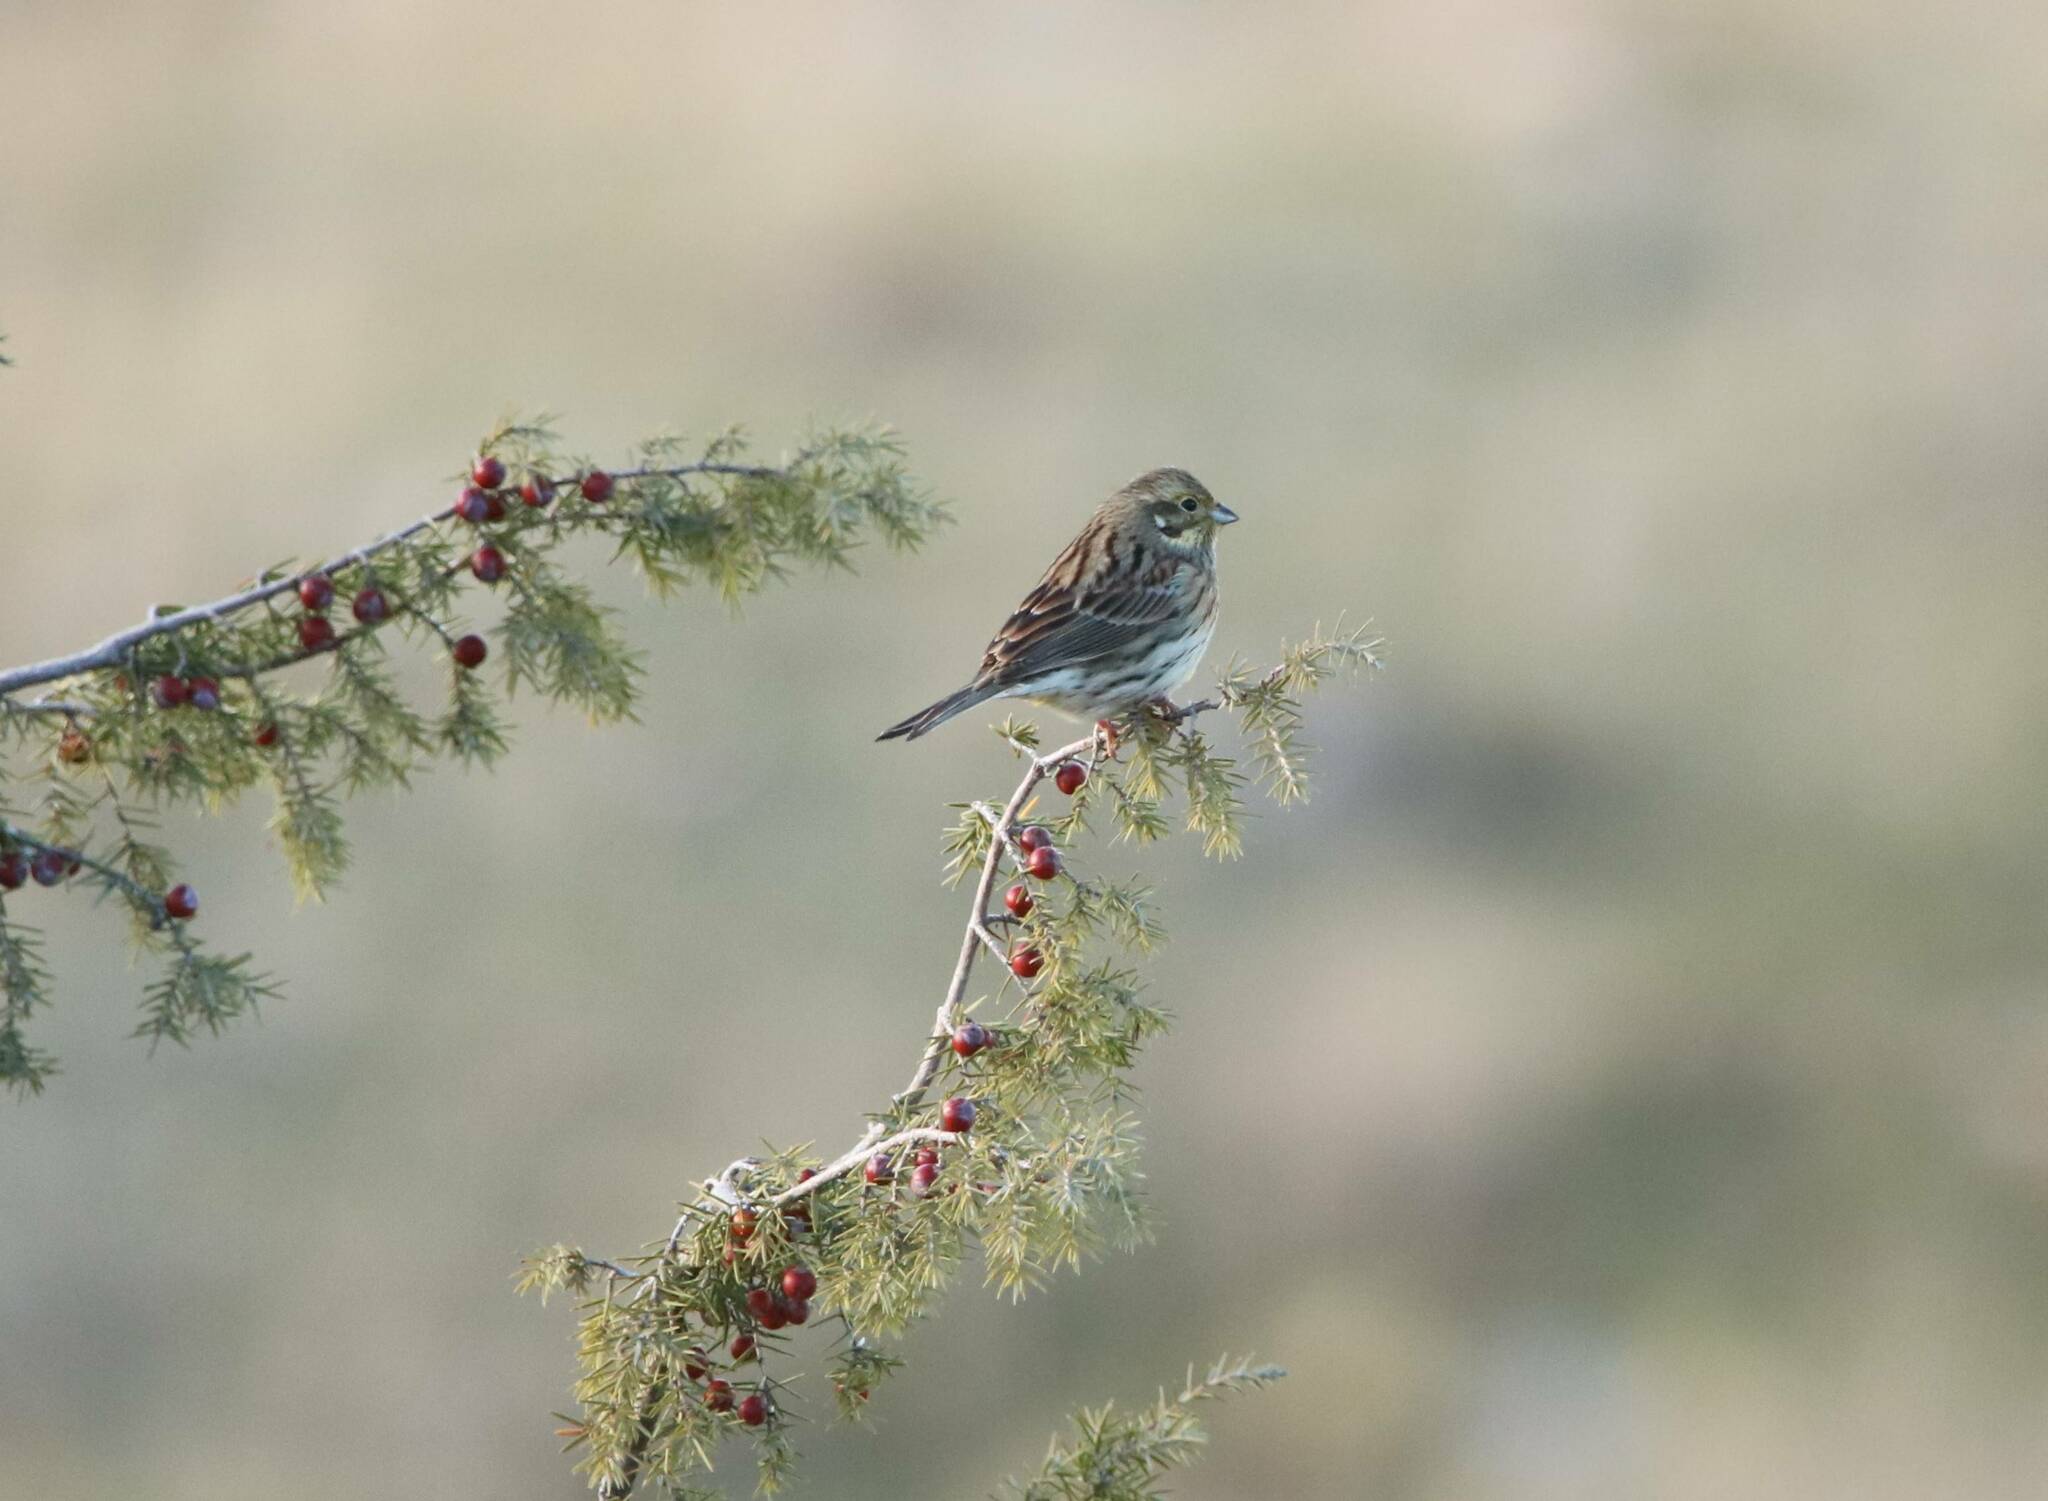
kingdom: Animalia
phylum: Chordata
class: Aves
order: Passeriformes
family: Emberizidae
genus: Emberiza
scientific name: Emberiza cirlus
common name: Cirl bunting
